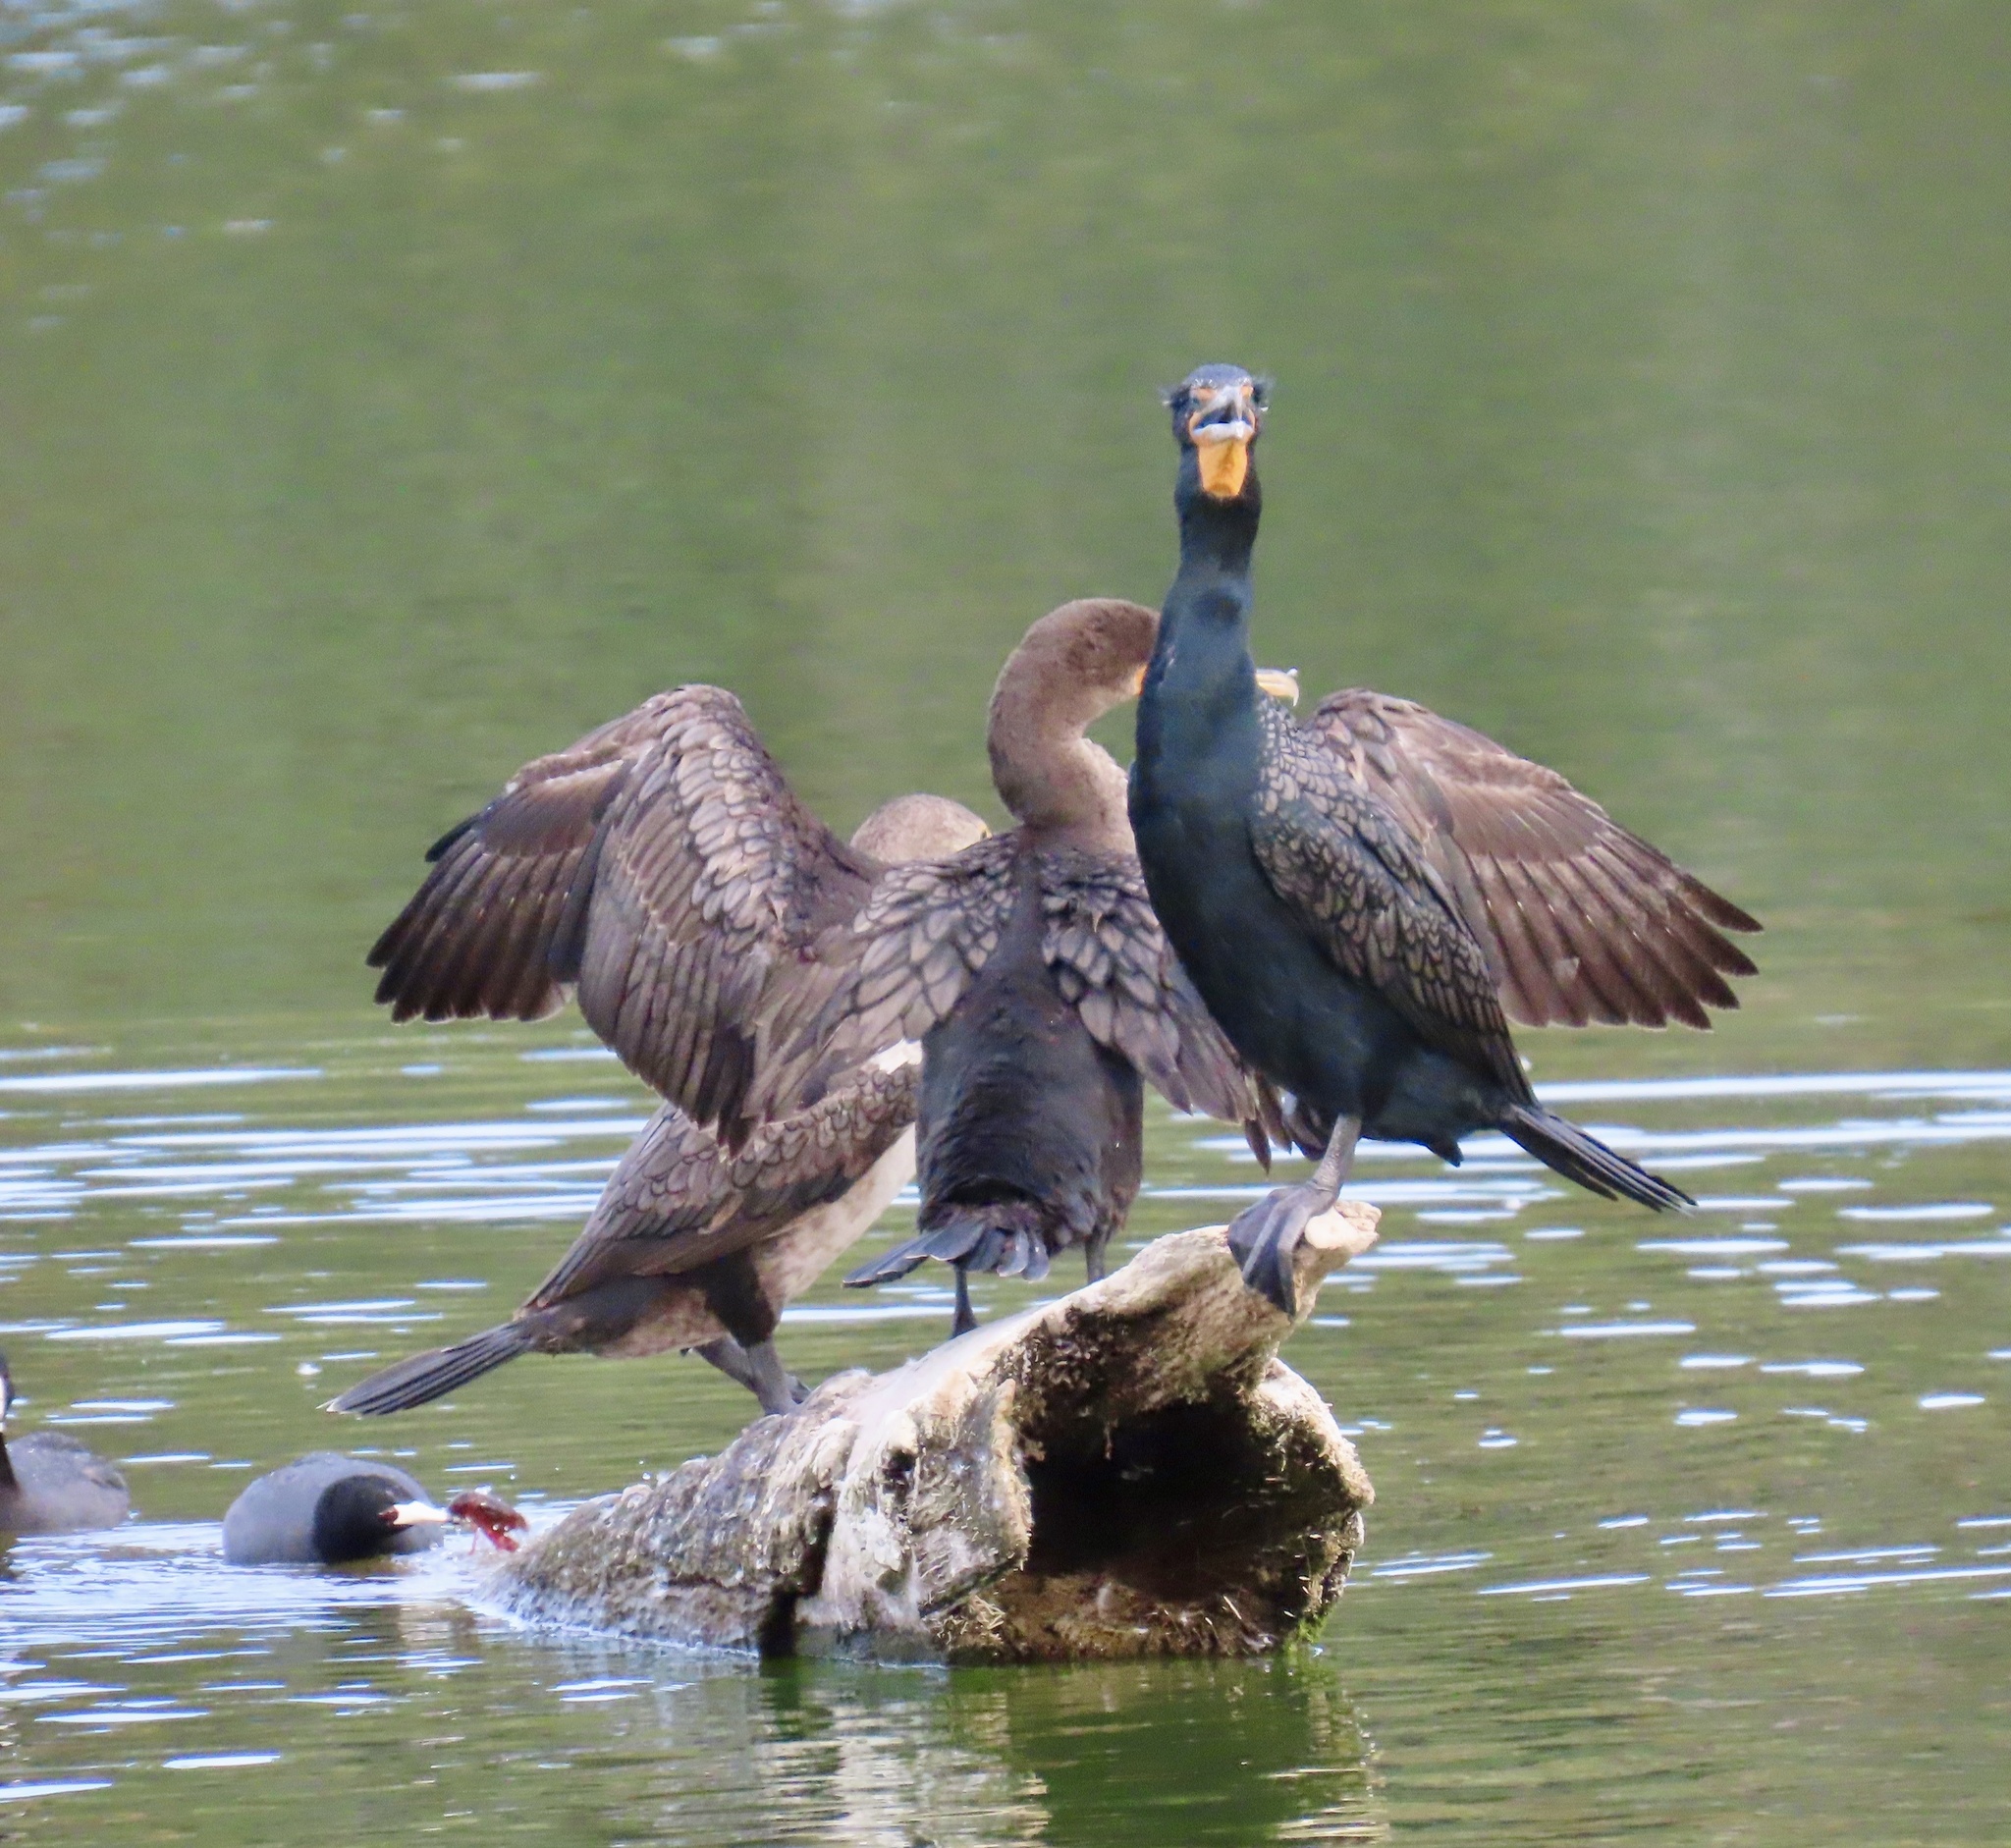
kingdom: Animalia
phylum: Chordata
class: Aves
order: Suliformes
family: Phalacrocoracidae
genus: Phalacrocorax
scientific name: Phalacrocorax auritus
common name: Double-crested cormorant
